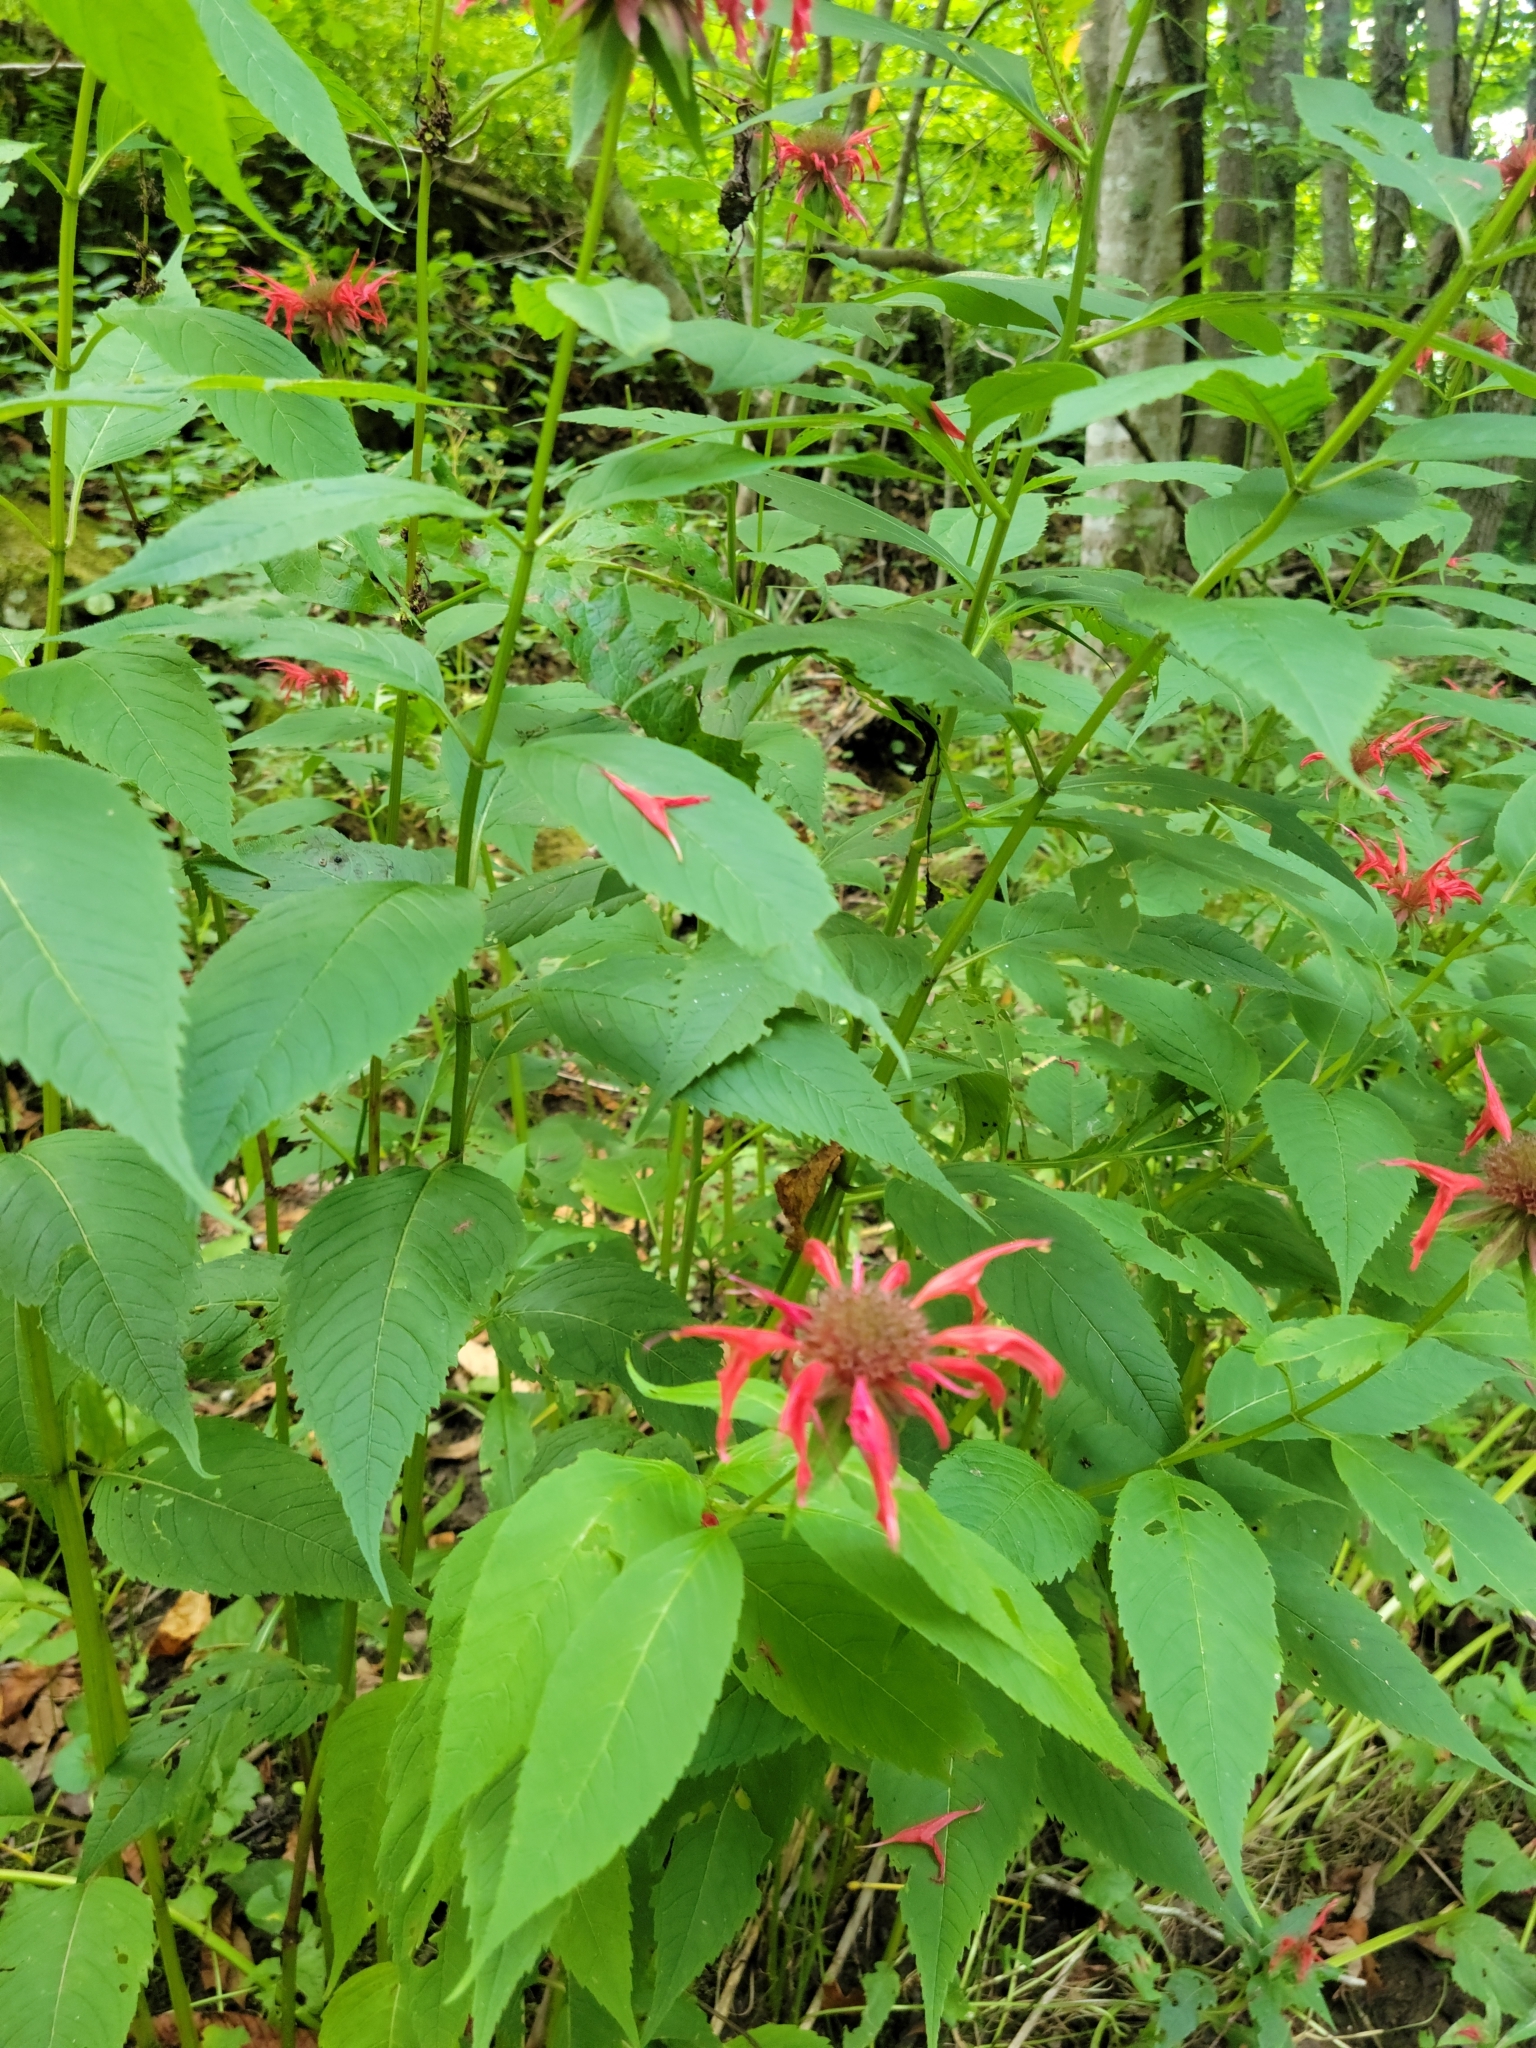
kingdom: Plantae
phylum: Tracheophyta
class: Magnoliopsida
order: Lamiales
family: Lamiaceae
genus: Monarda
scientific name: Monarda didyma
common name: Beebalm
